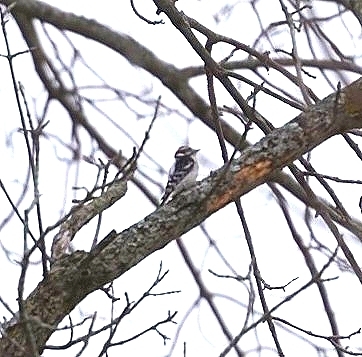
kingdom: Animalia
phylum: Chordata
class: Aves
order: Piciformes
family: Picidae
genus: Dryobates
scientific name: Dryobates pubescens
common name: Downy woodpecker
